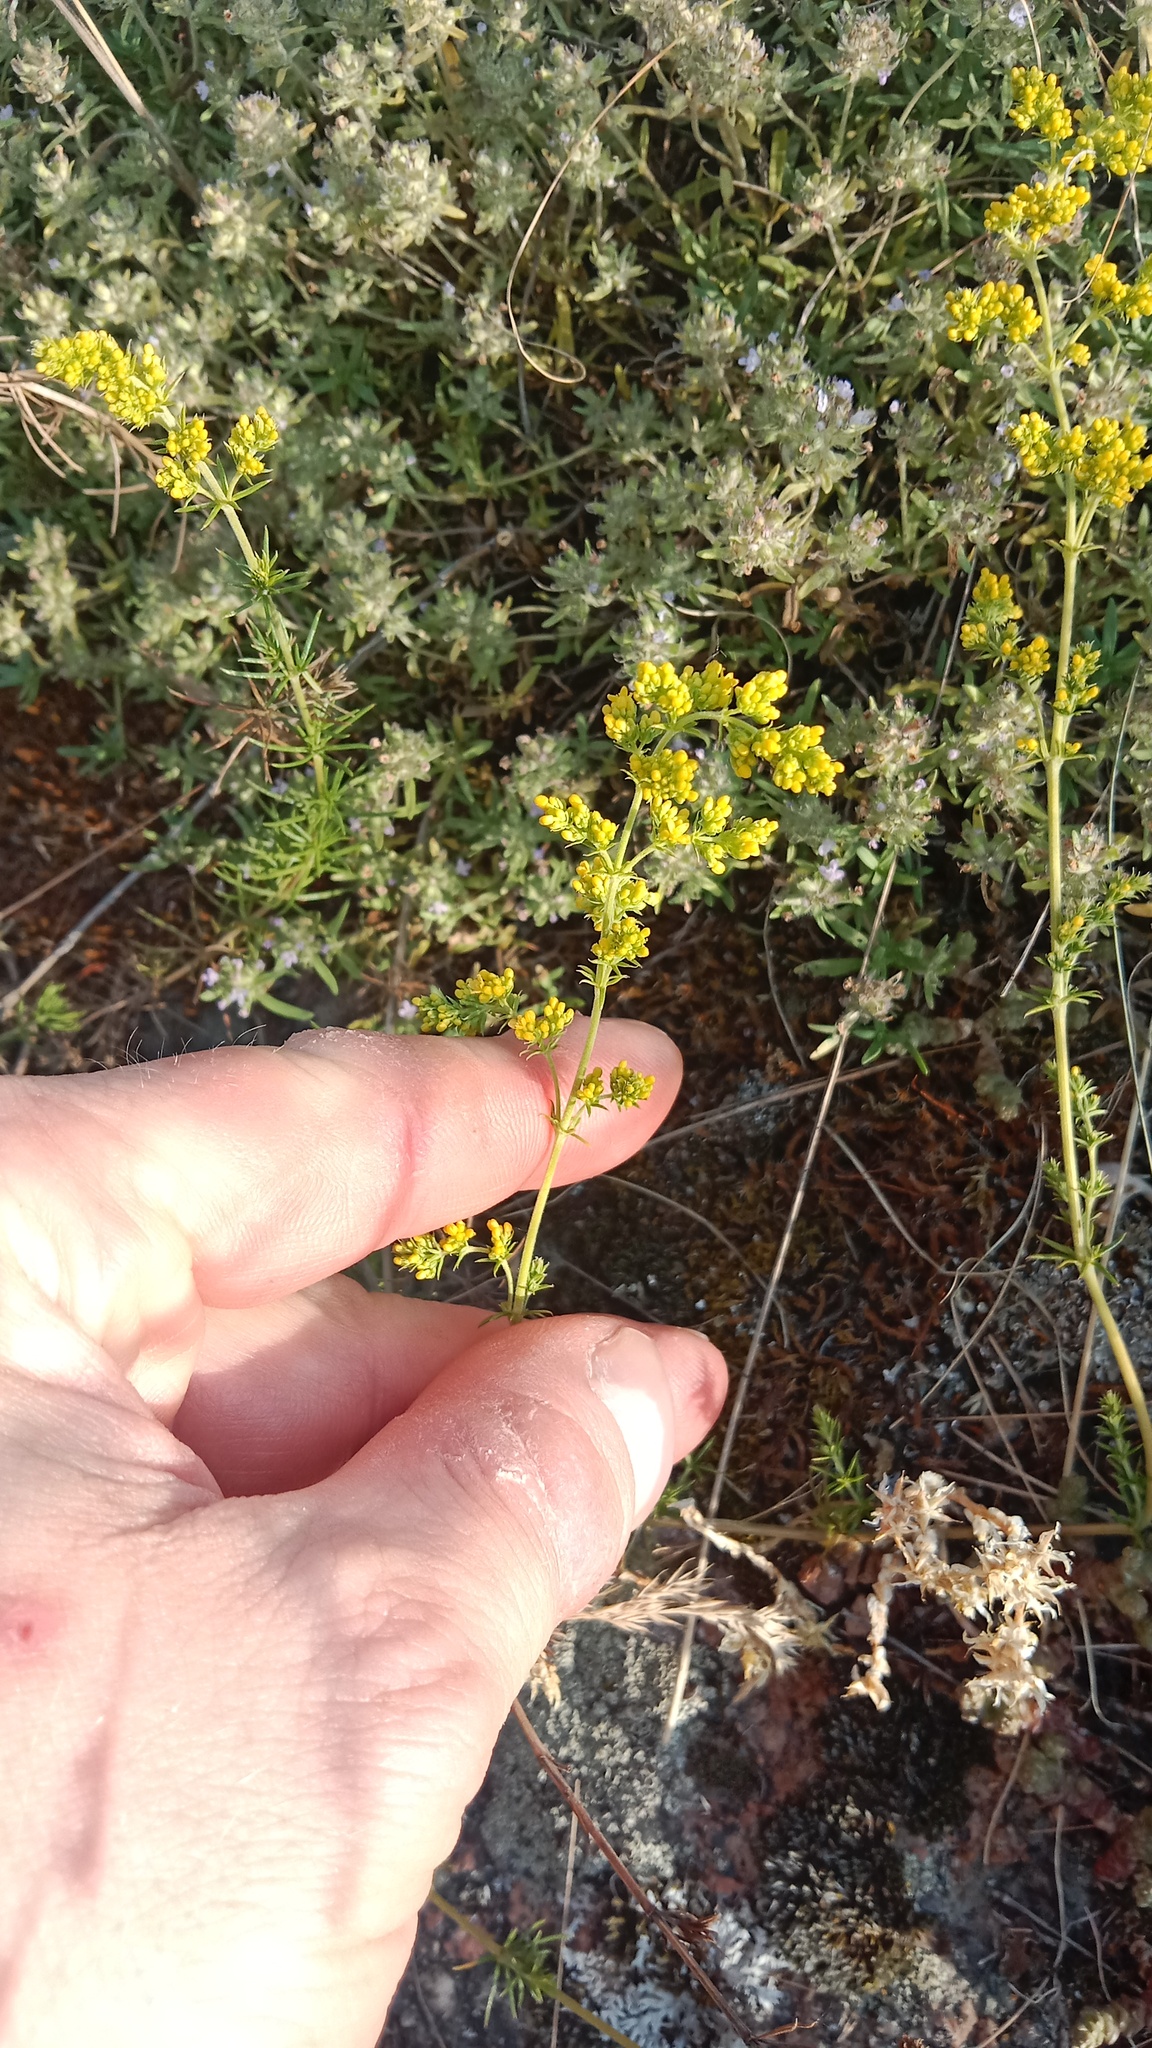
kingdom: Plantae
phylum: Tracheophyta
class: Magnoliopsida
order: Gentianales
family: Rubiaceae
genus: Galium
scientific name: Galium verum
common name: Lady's bedstraw
